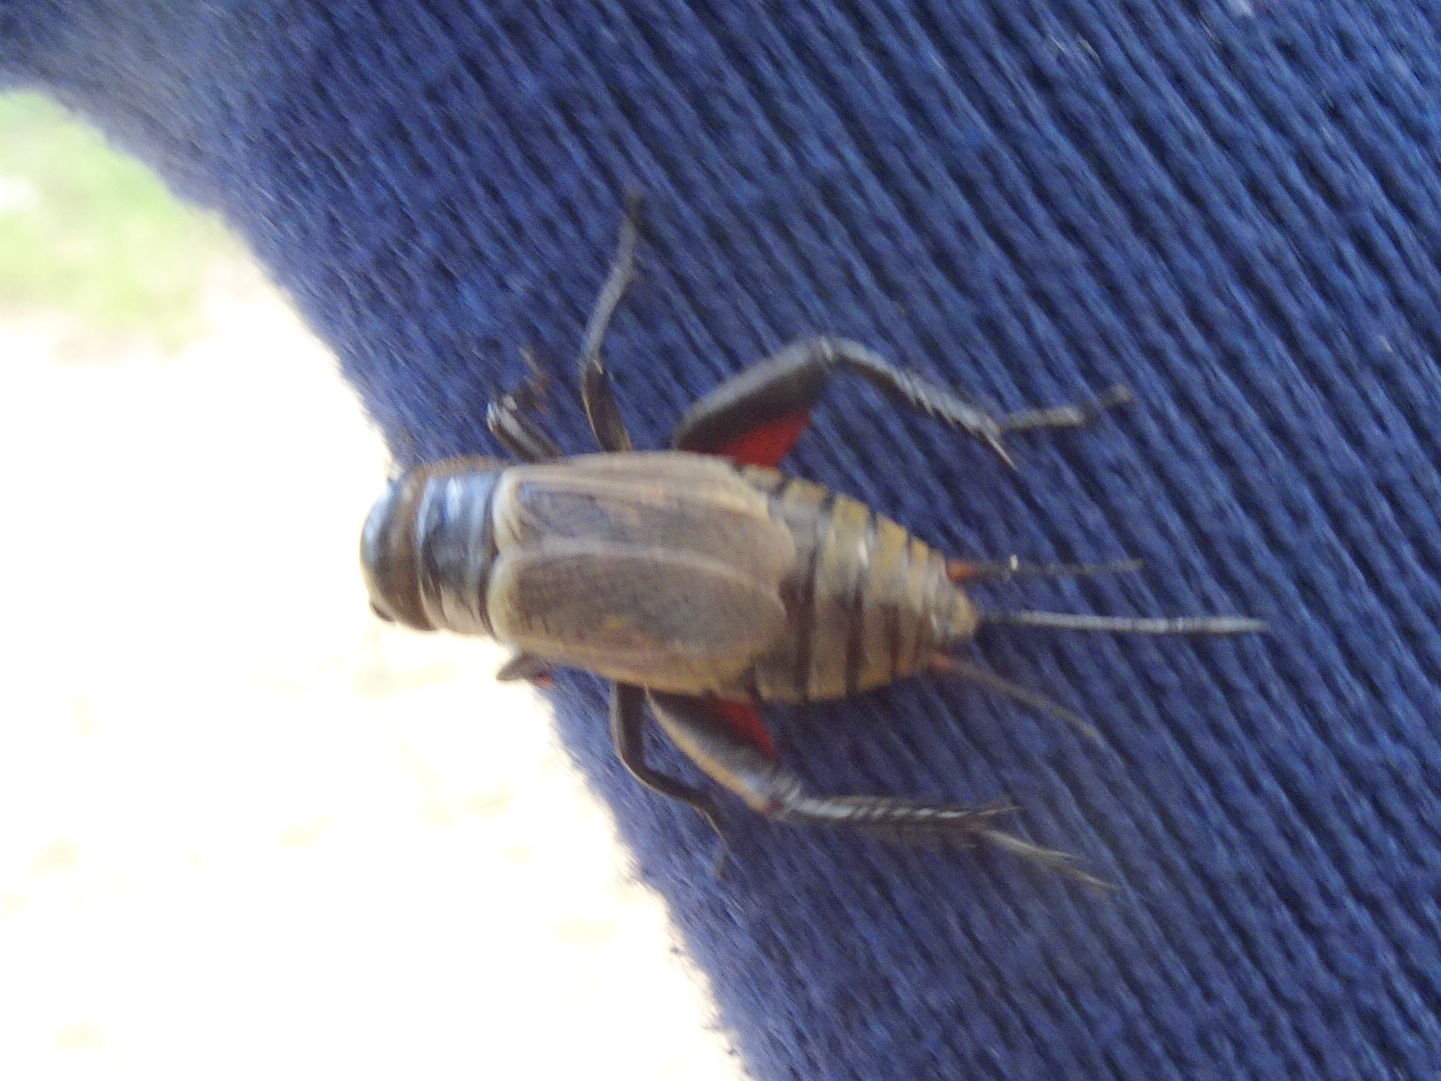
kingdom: Animalia
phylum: Arthropoda
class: Insecta
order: Orthoptera
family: Gryllidae
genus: Gryllus
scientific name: Gryllus campestris
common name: Field cricket
